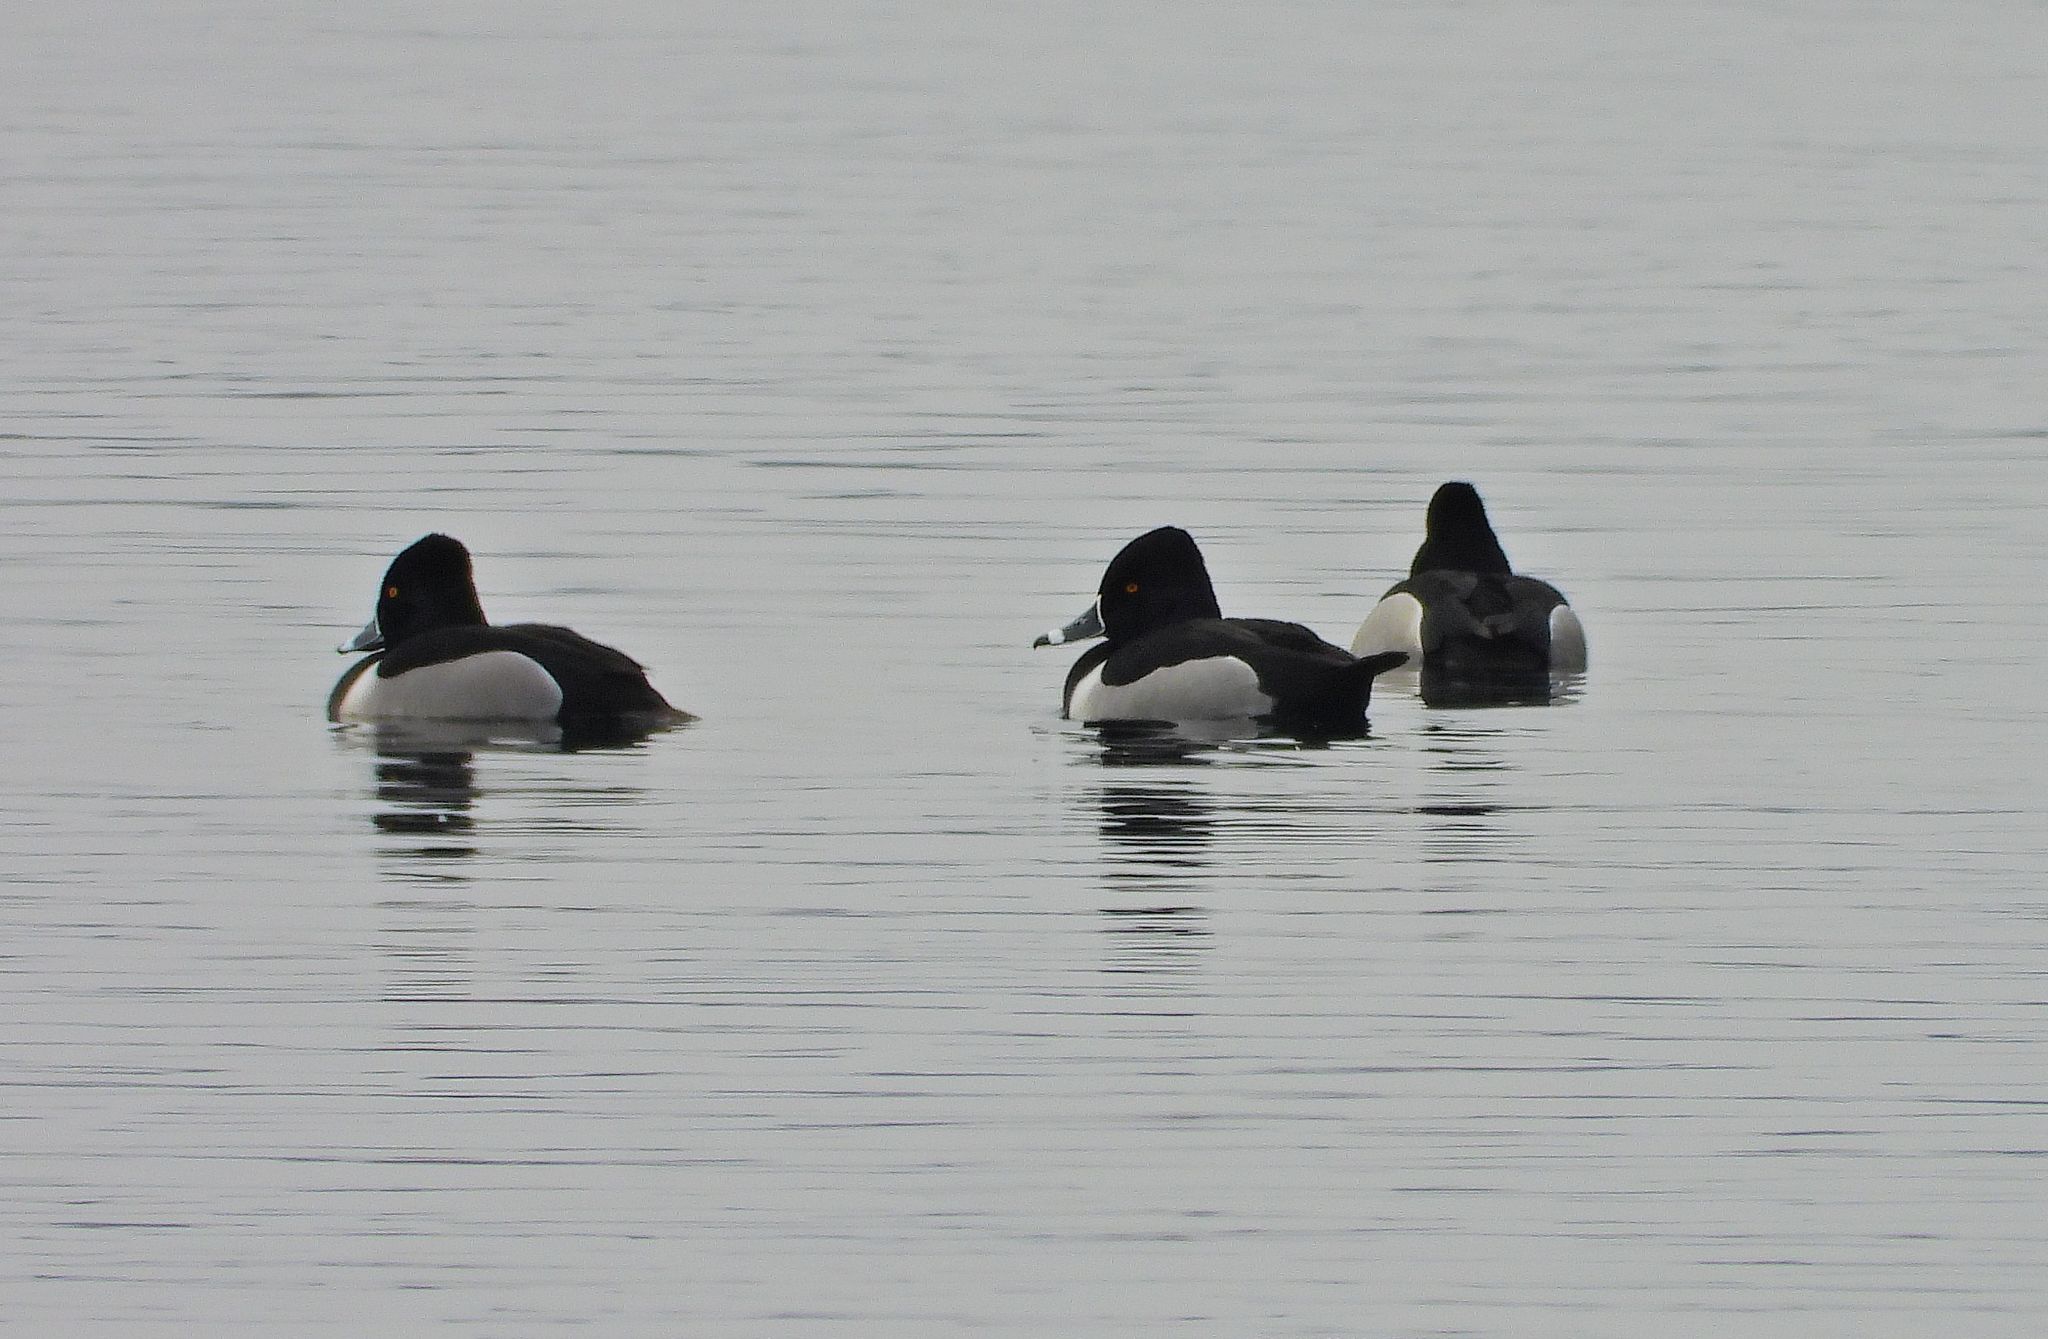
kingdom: Animalia
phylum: Chordata
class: Aves
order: Anseriformes
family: Anatidae
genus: Aythya
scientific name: Aythya collaris
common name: Ring-necked duck
